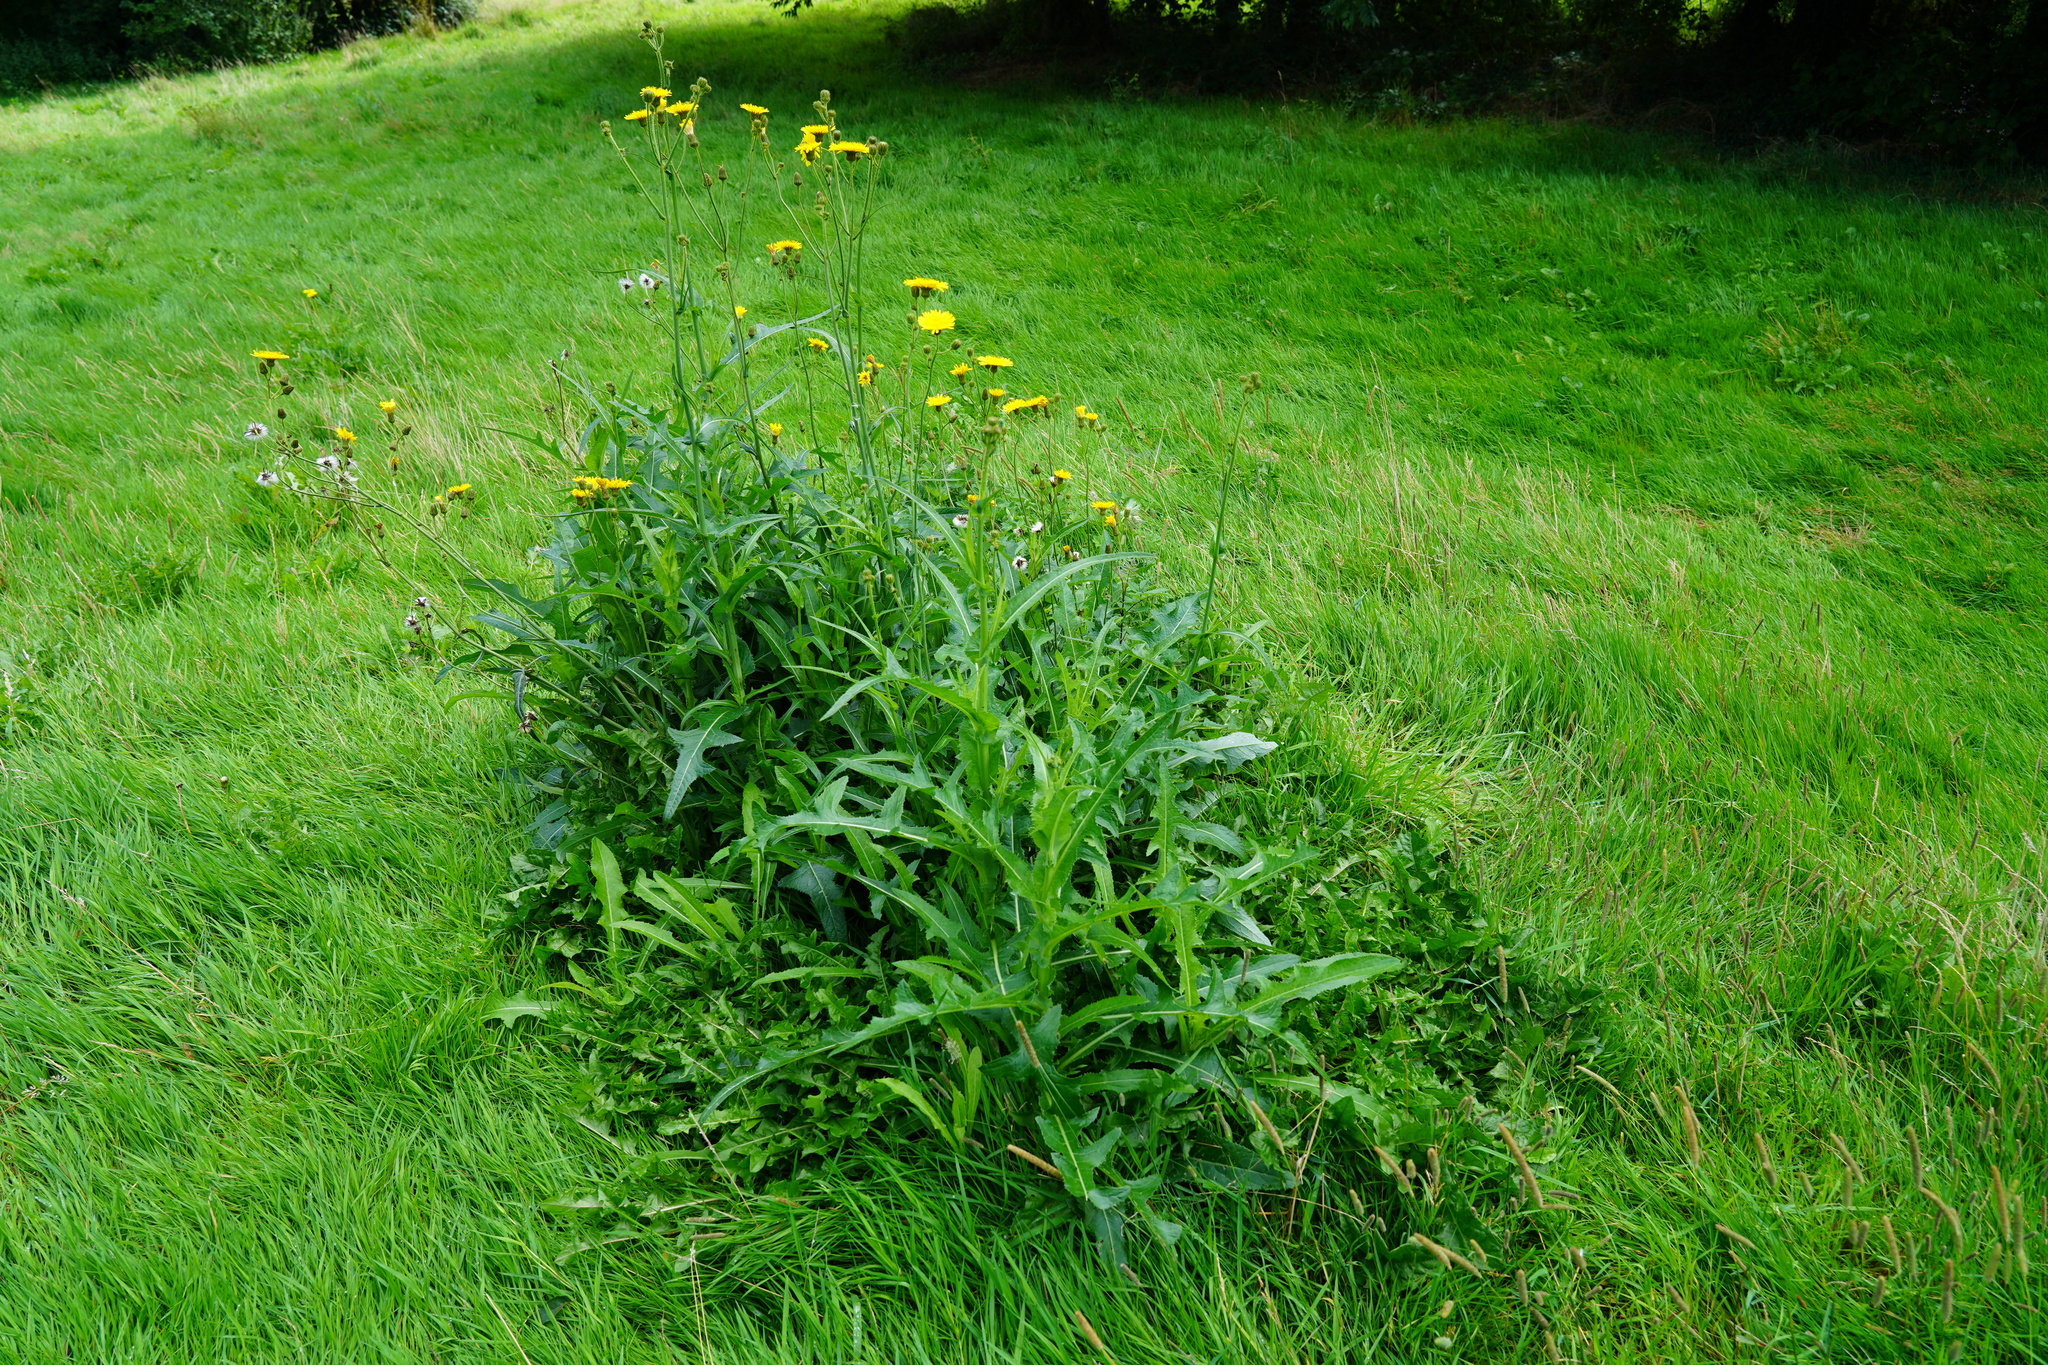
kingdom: Plantae
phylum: Tracheophyta
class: Magnoliopsida
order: Asterales
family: Asteraceae
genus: Sonchus
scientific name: Sonchus arvensis
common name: Perennial sow-thistle
